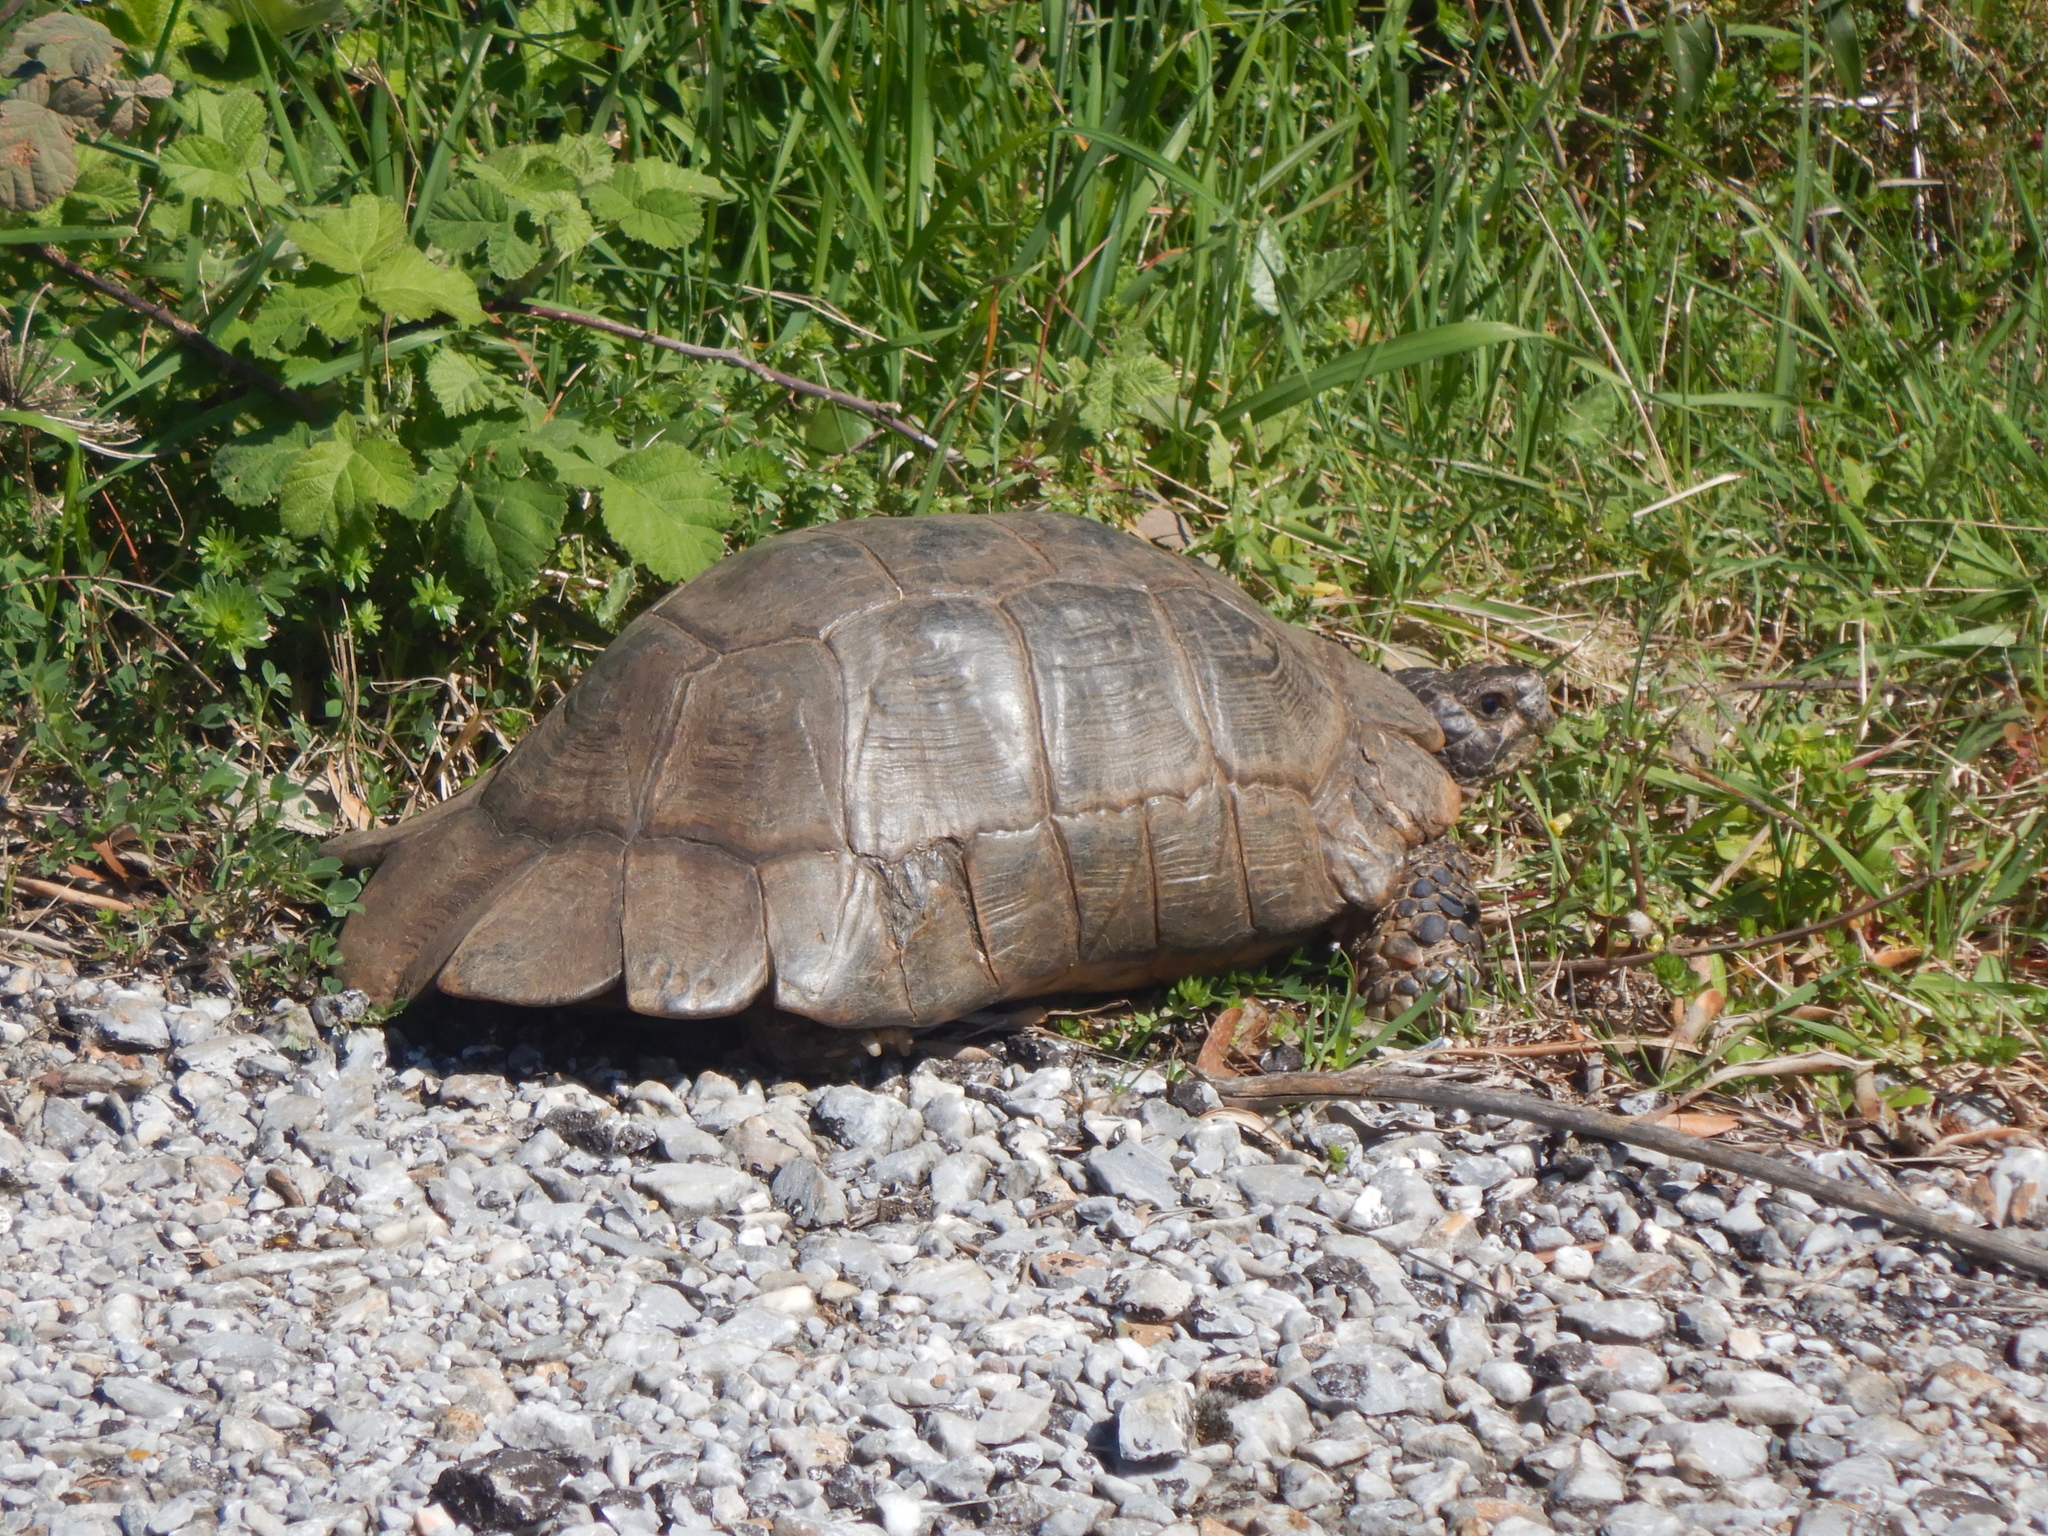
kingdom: Animalia
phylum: Chordata
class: Testudines
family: Testudinidae
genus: Testudo
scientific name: Testudo marginata
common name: Marginated tortoise
